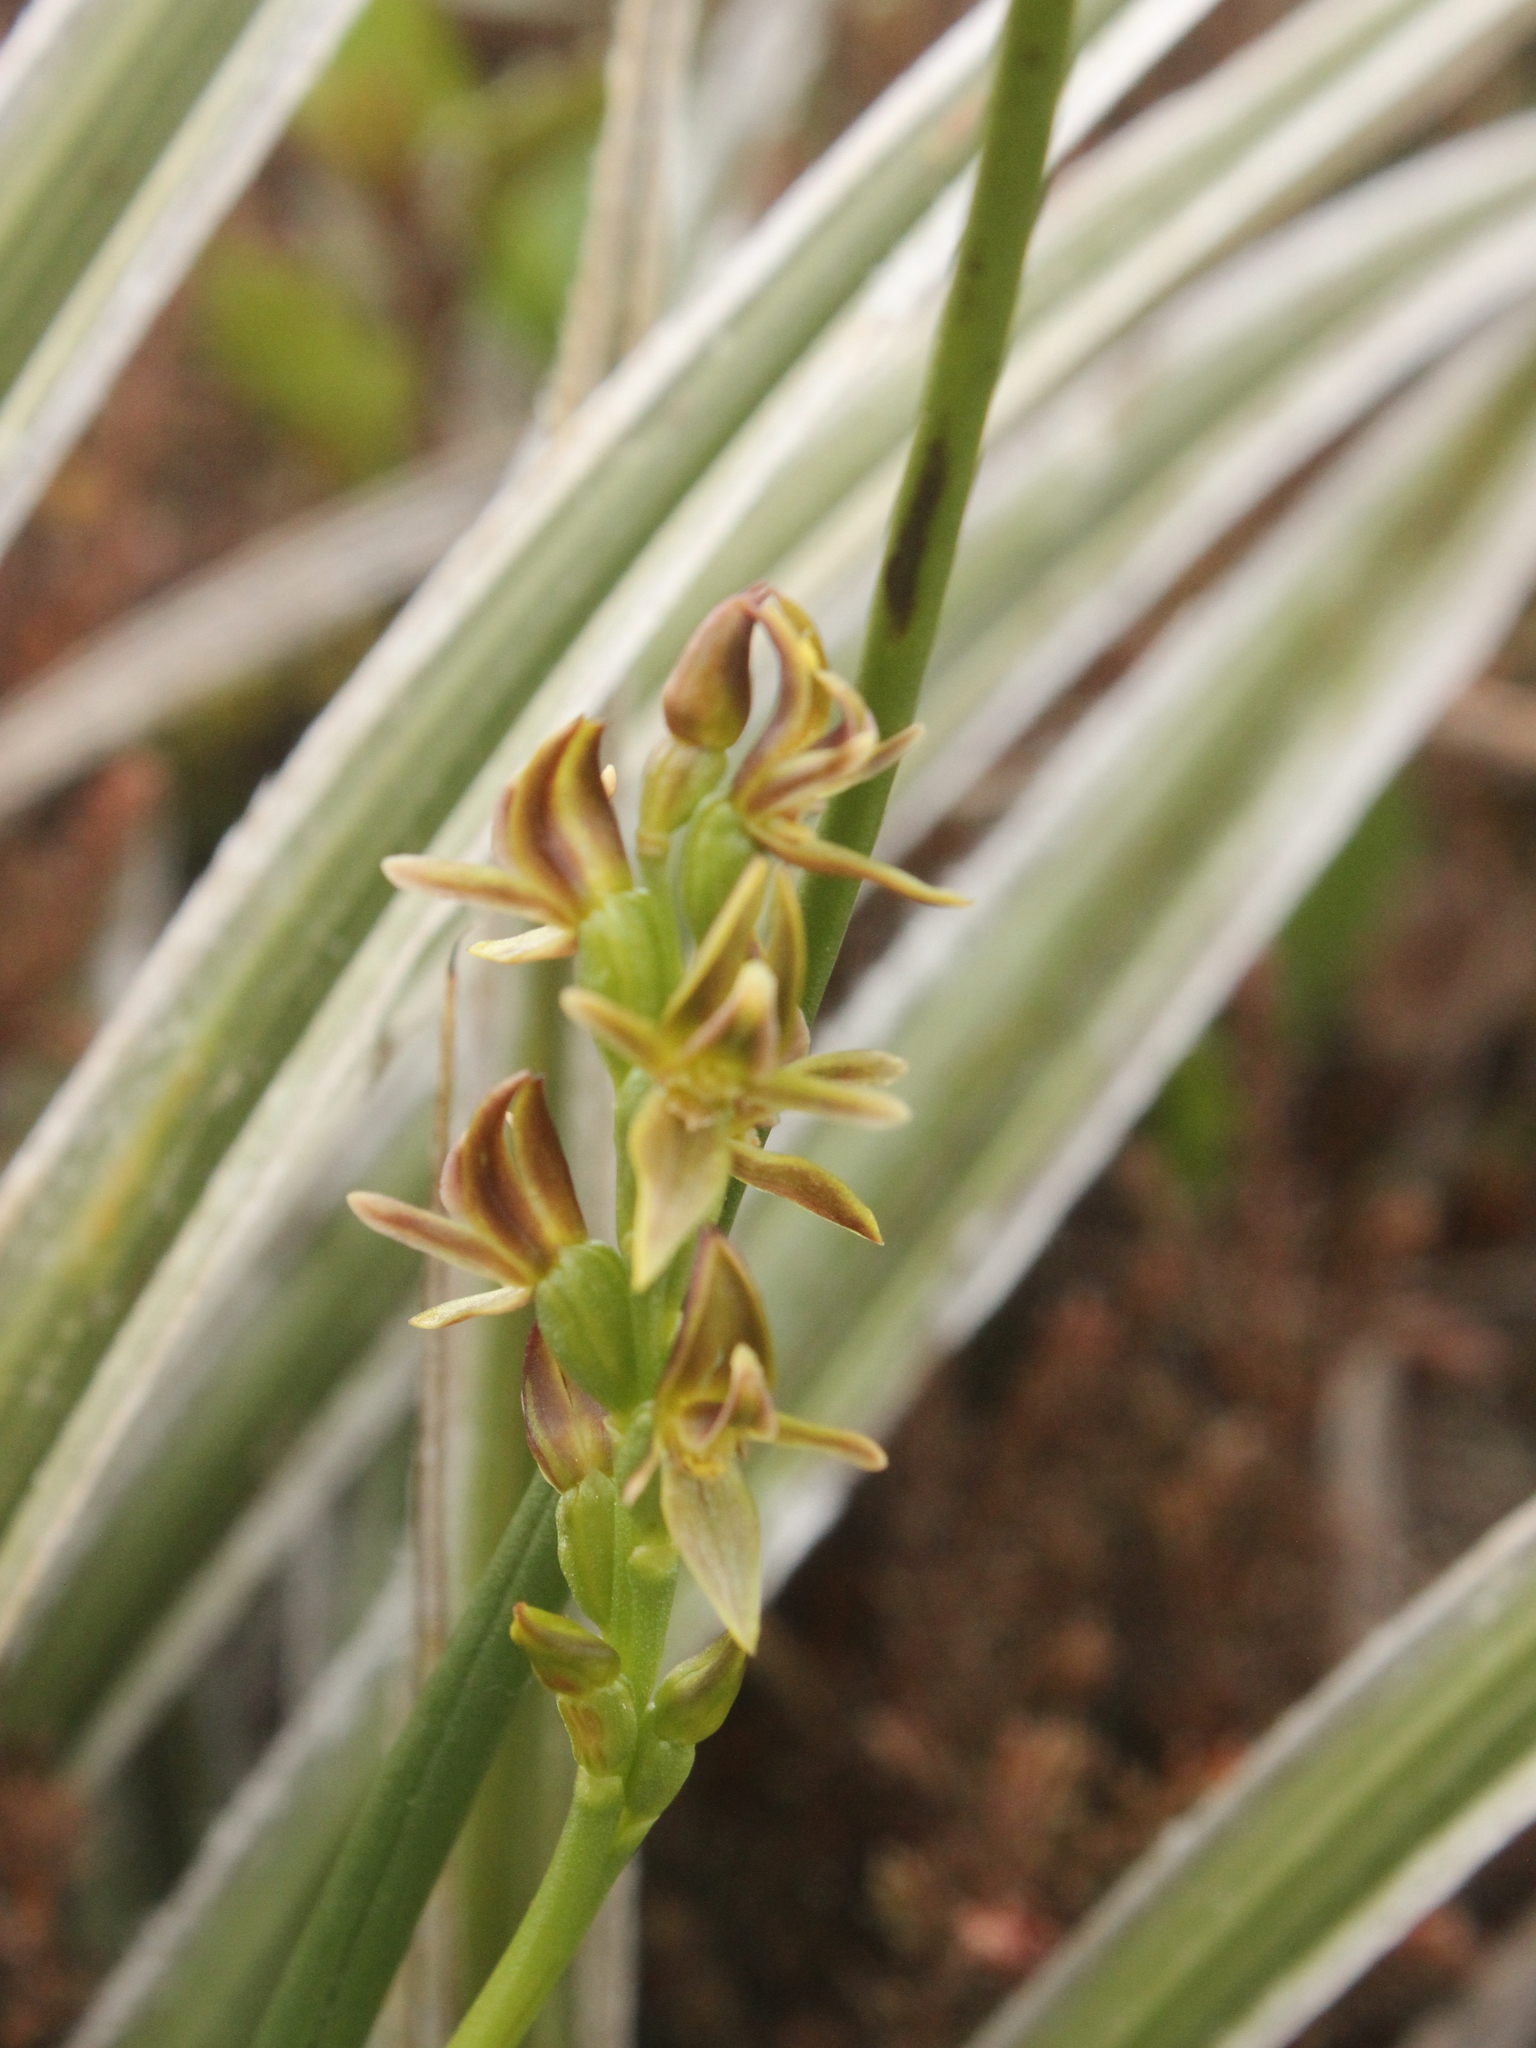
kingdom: Plantae
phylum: Tracheophyta
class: Liliopsida
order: Asparagales
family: Orchidaceae
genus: Prasophyllum
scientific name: Prasophyllum colensoi
